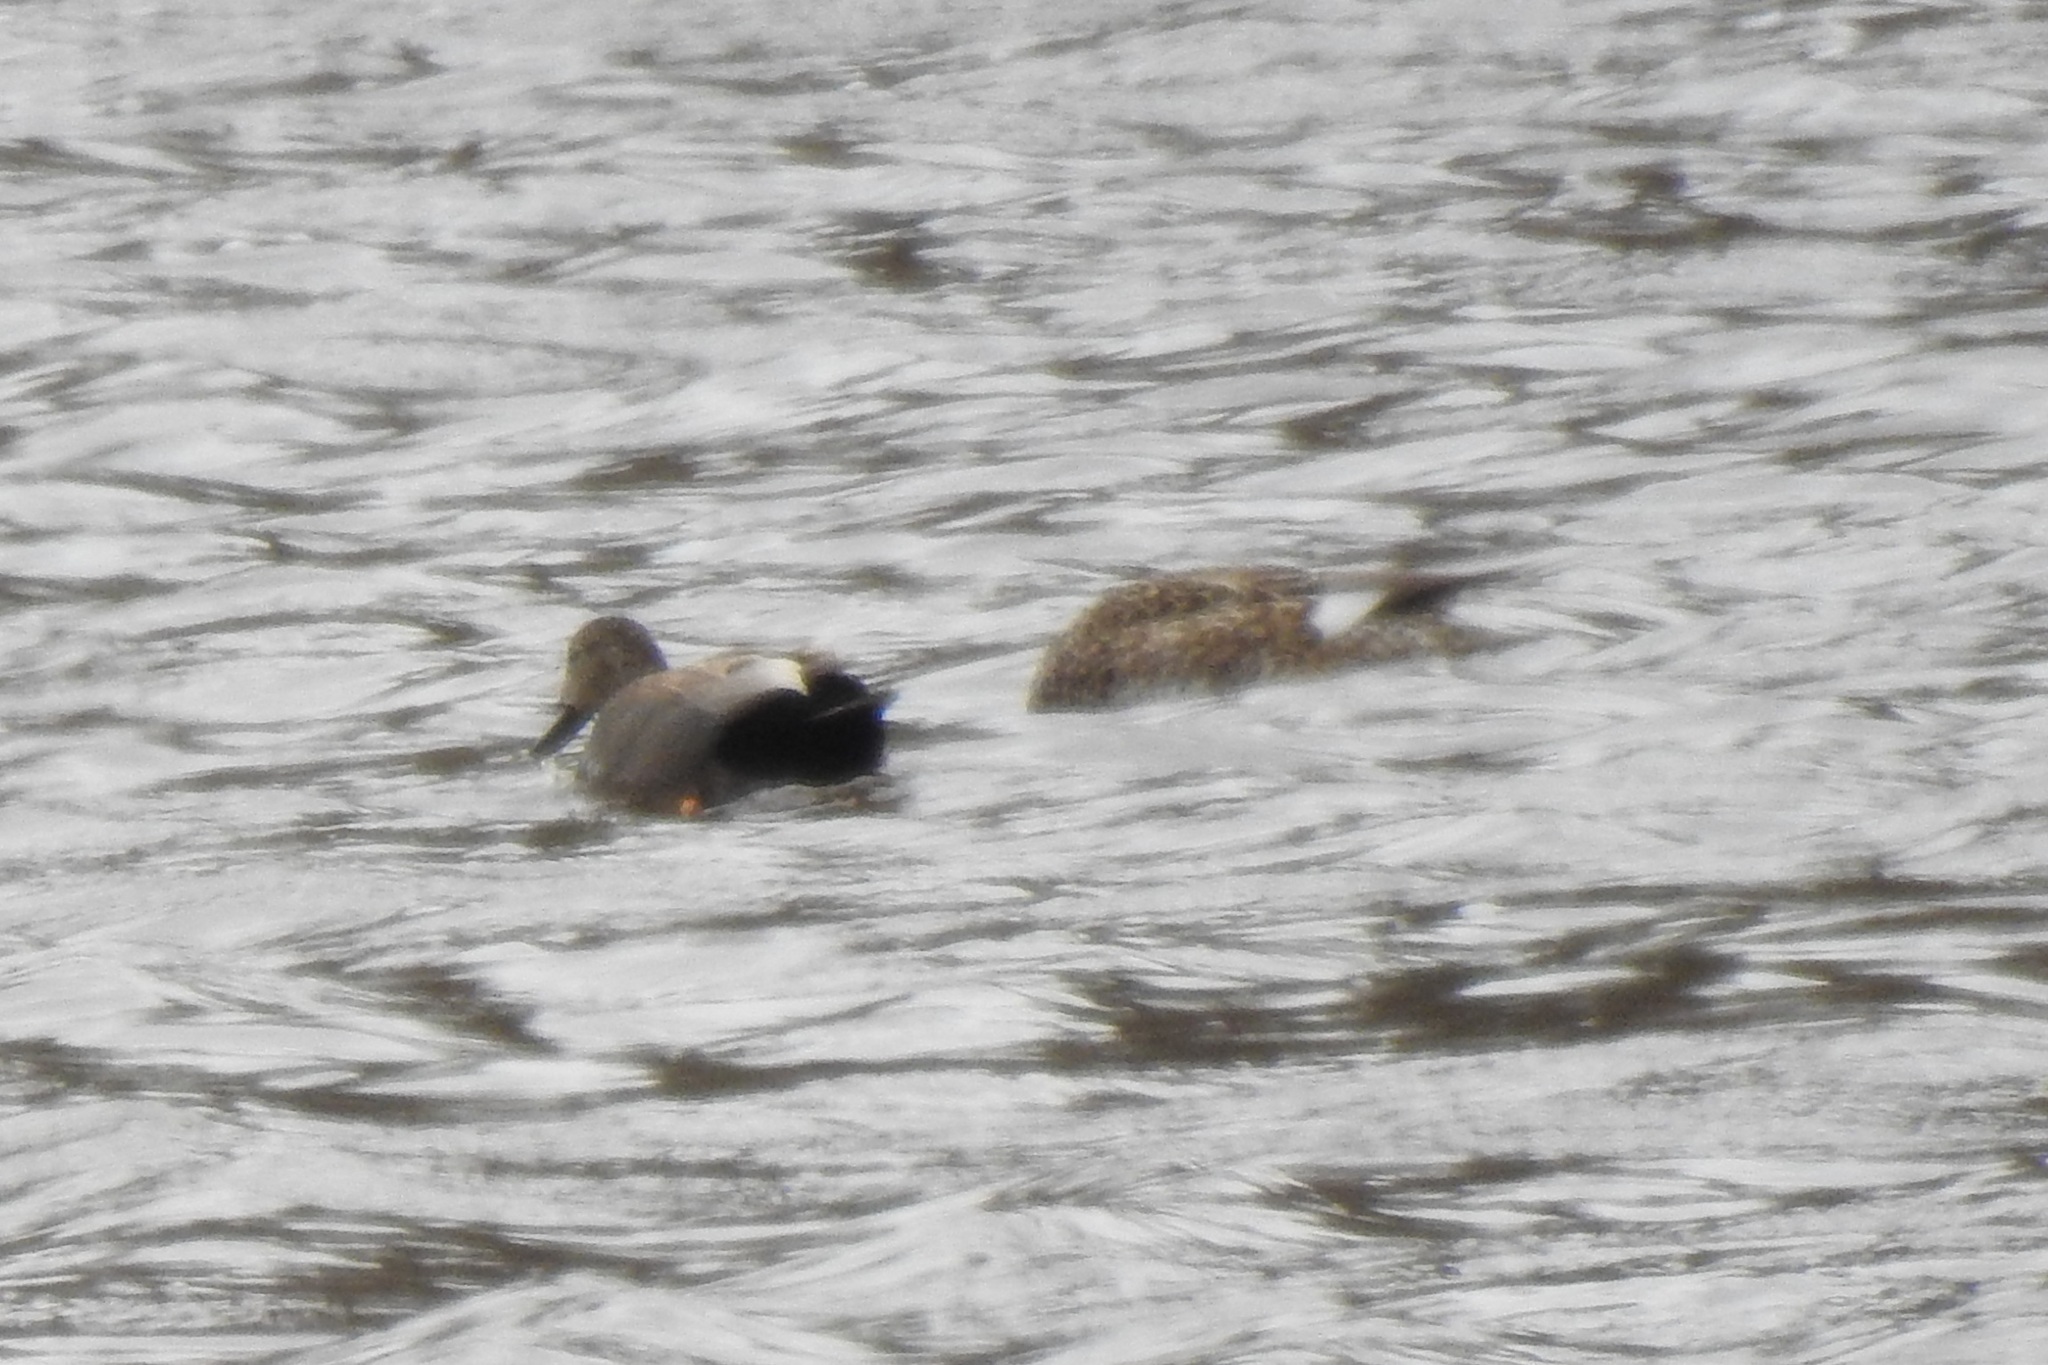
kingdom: Animalia
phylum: Chordata
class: Aves
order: Anseriformes
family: Anatidae
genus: Mareca
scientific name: Mareca strepera
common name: Gadwall
